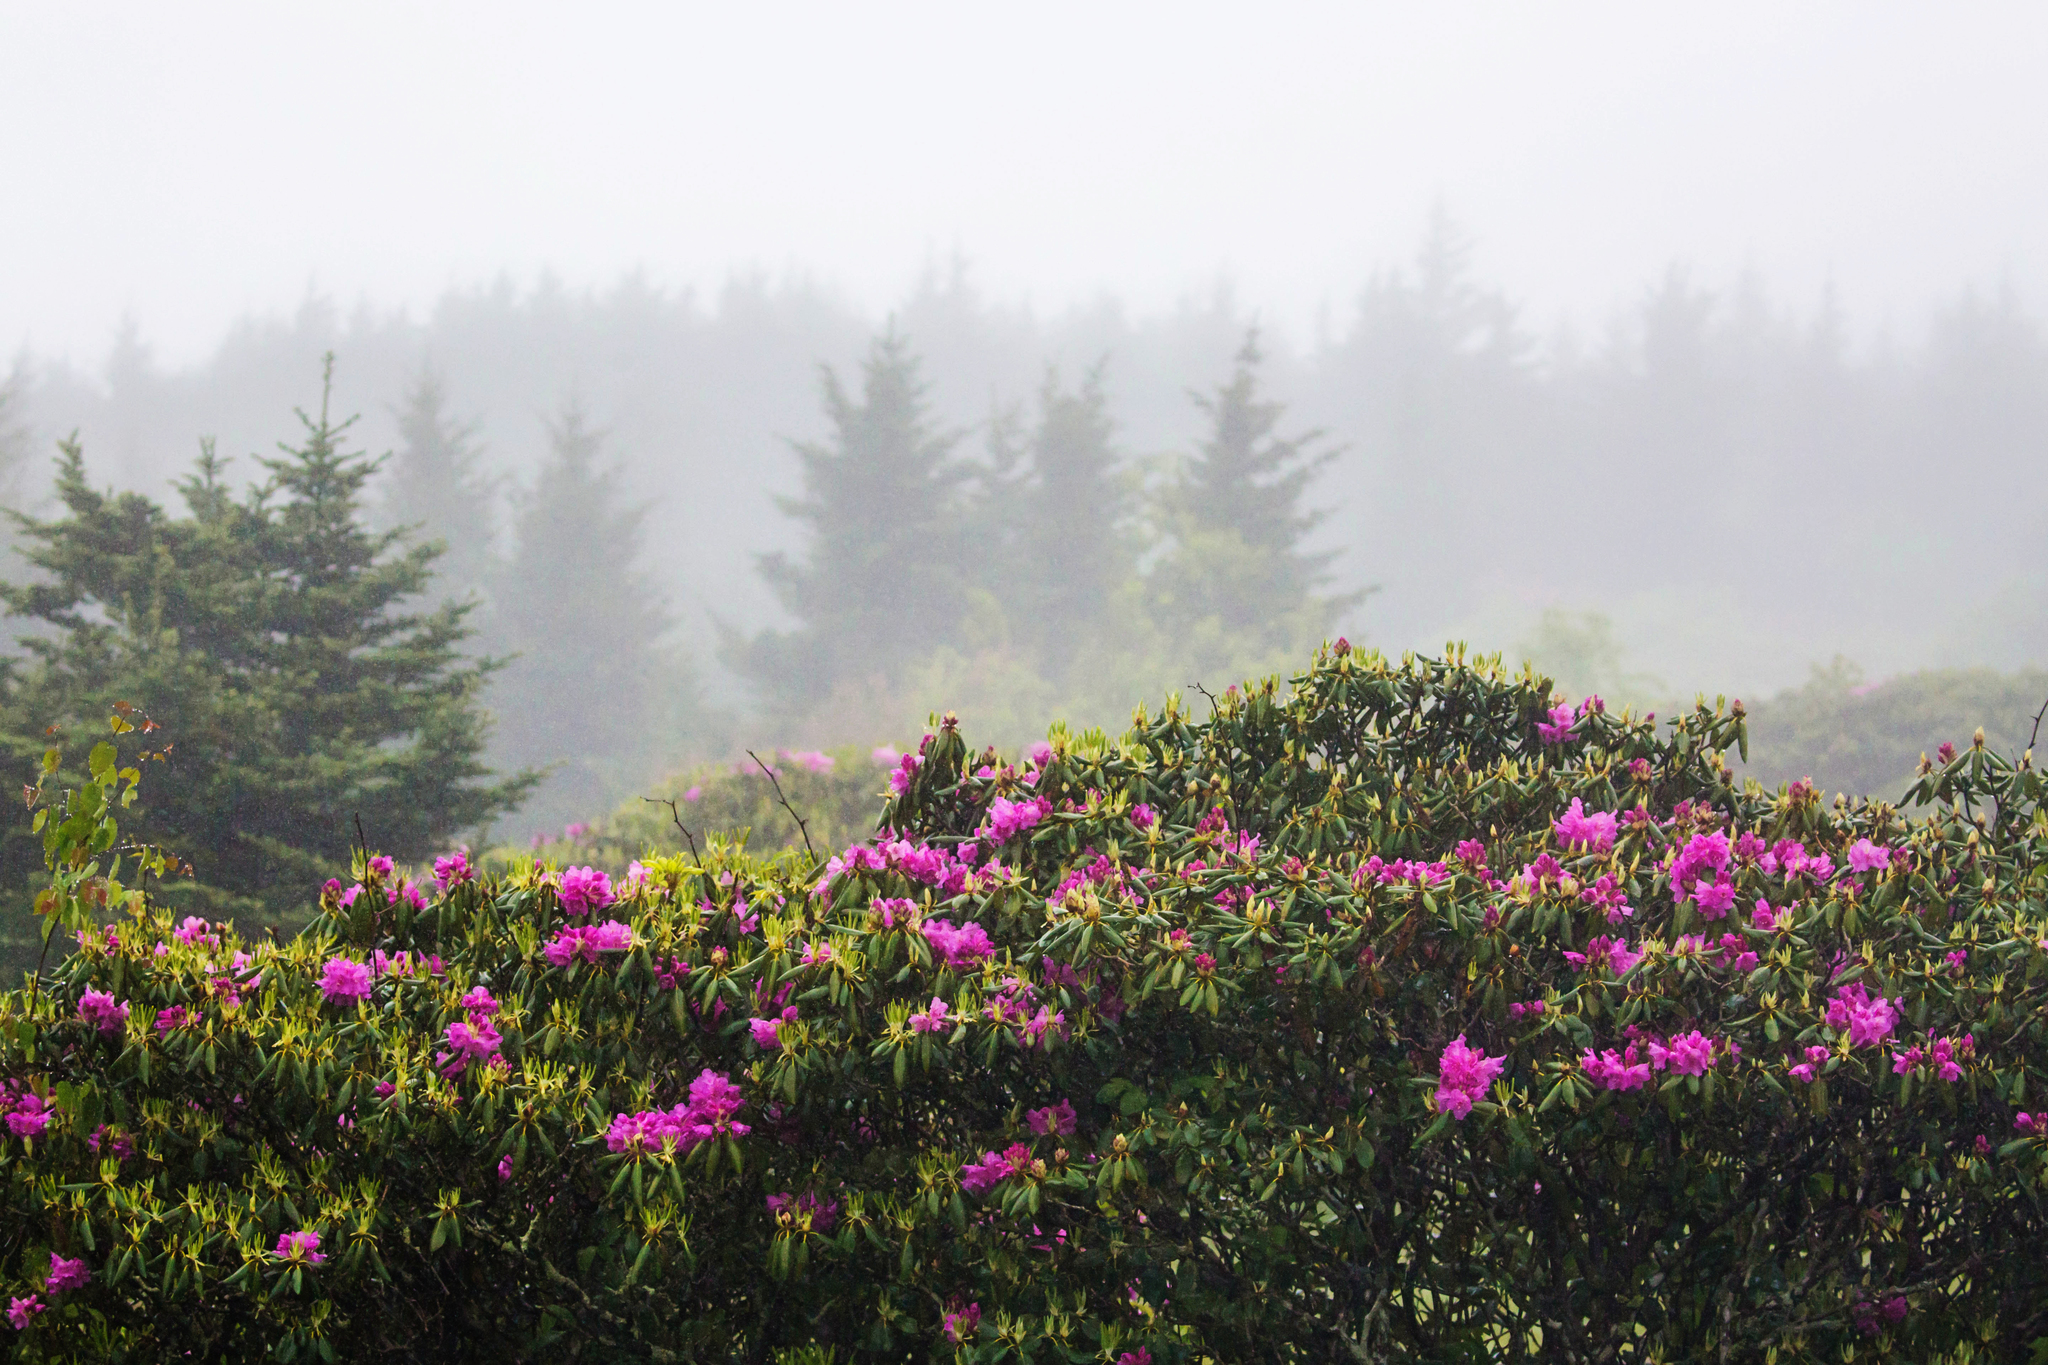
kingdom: Plantae
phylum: Tracheophyta
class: Magnoliopsida
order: Ericales
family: Ericaceae
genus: Rhododendron
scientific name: Rhododendron catawbiense
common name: Catawba rhododendron
